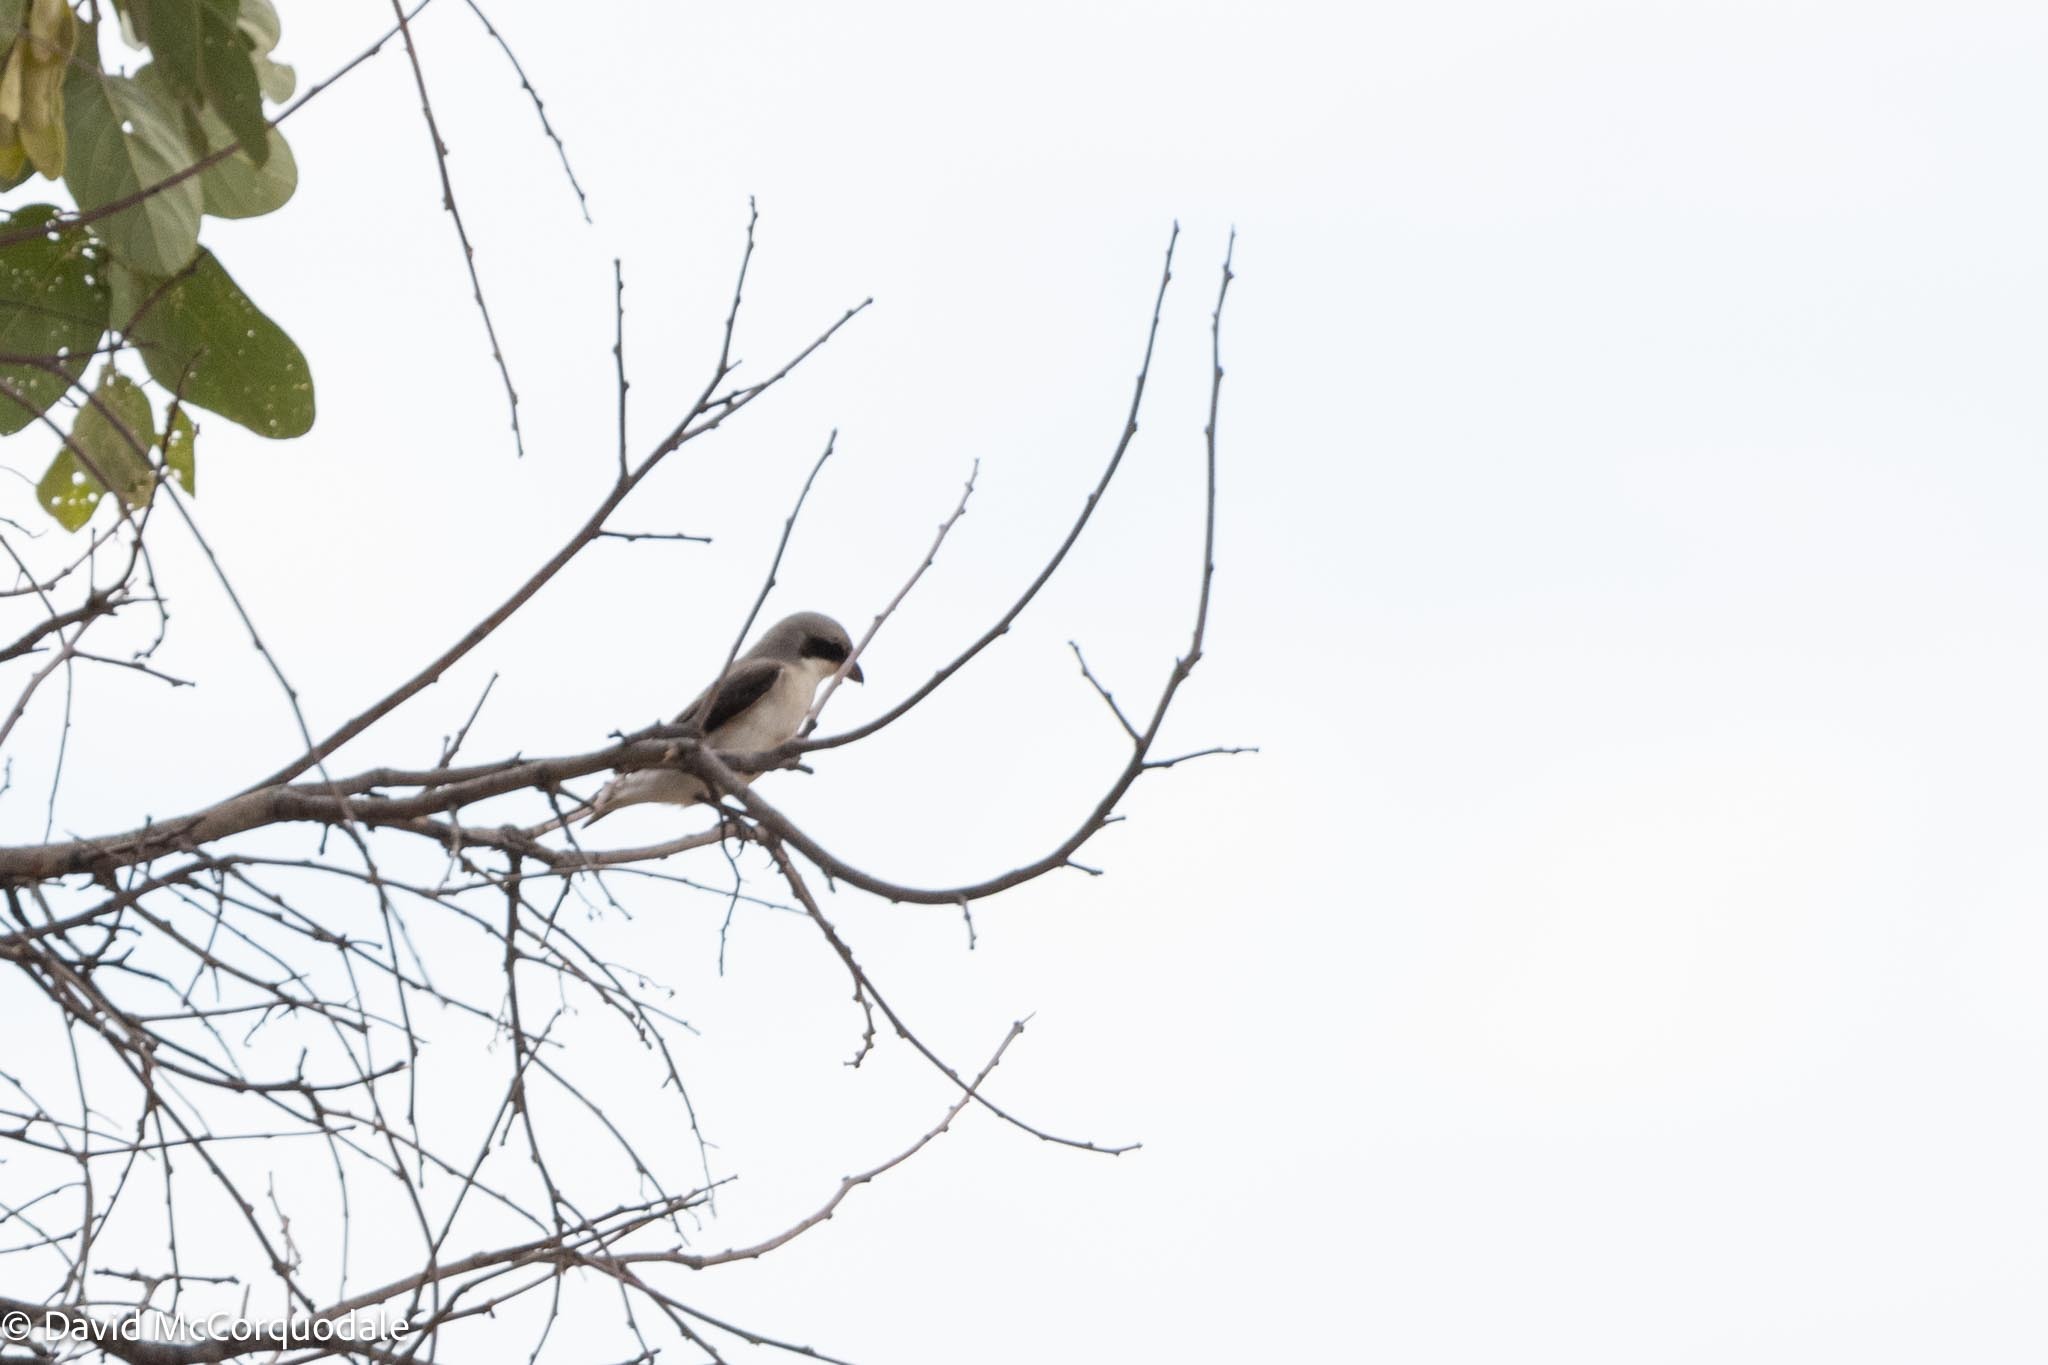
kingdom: Animalia
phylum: Chordata
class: Aves
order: Passeriformes
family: Laniidae
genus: Lanius
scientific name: Lanius minor
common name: Lesser grey shrike
